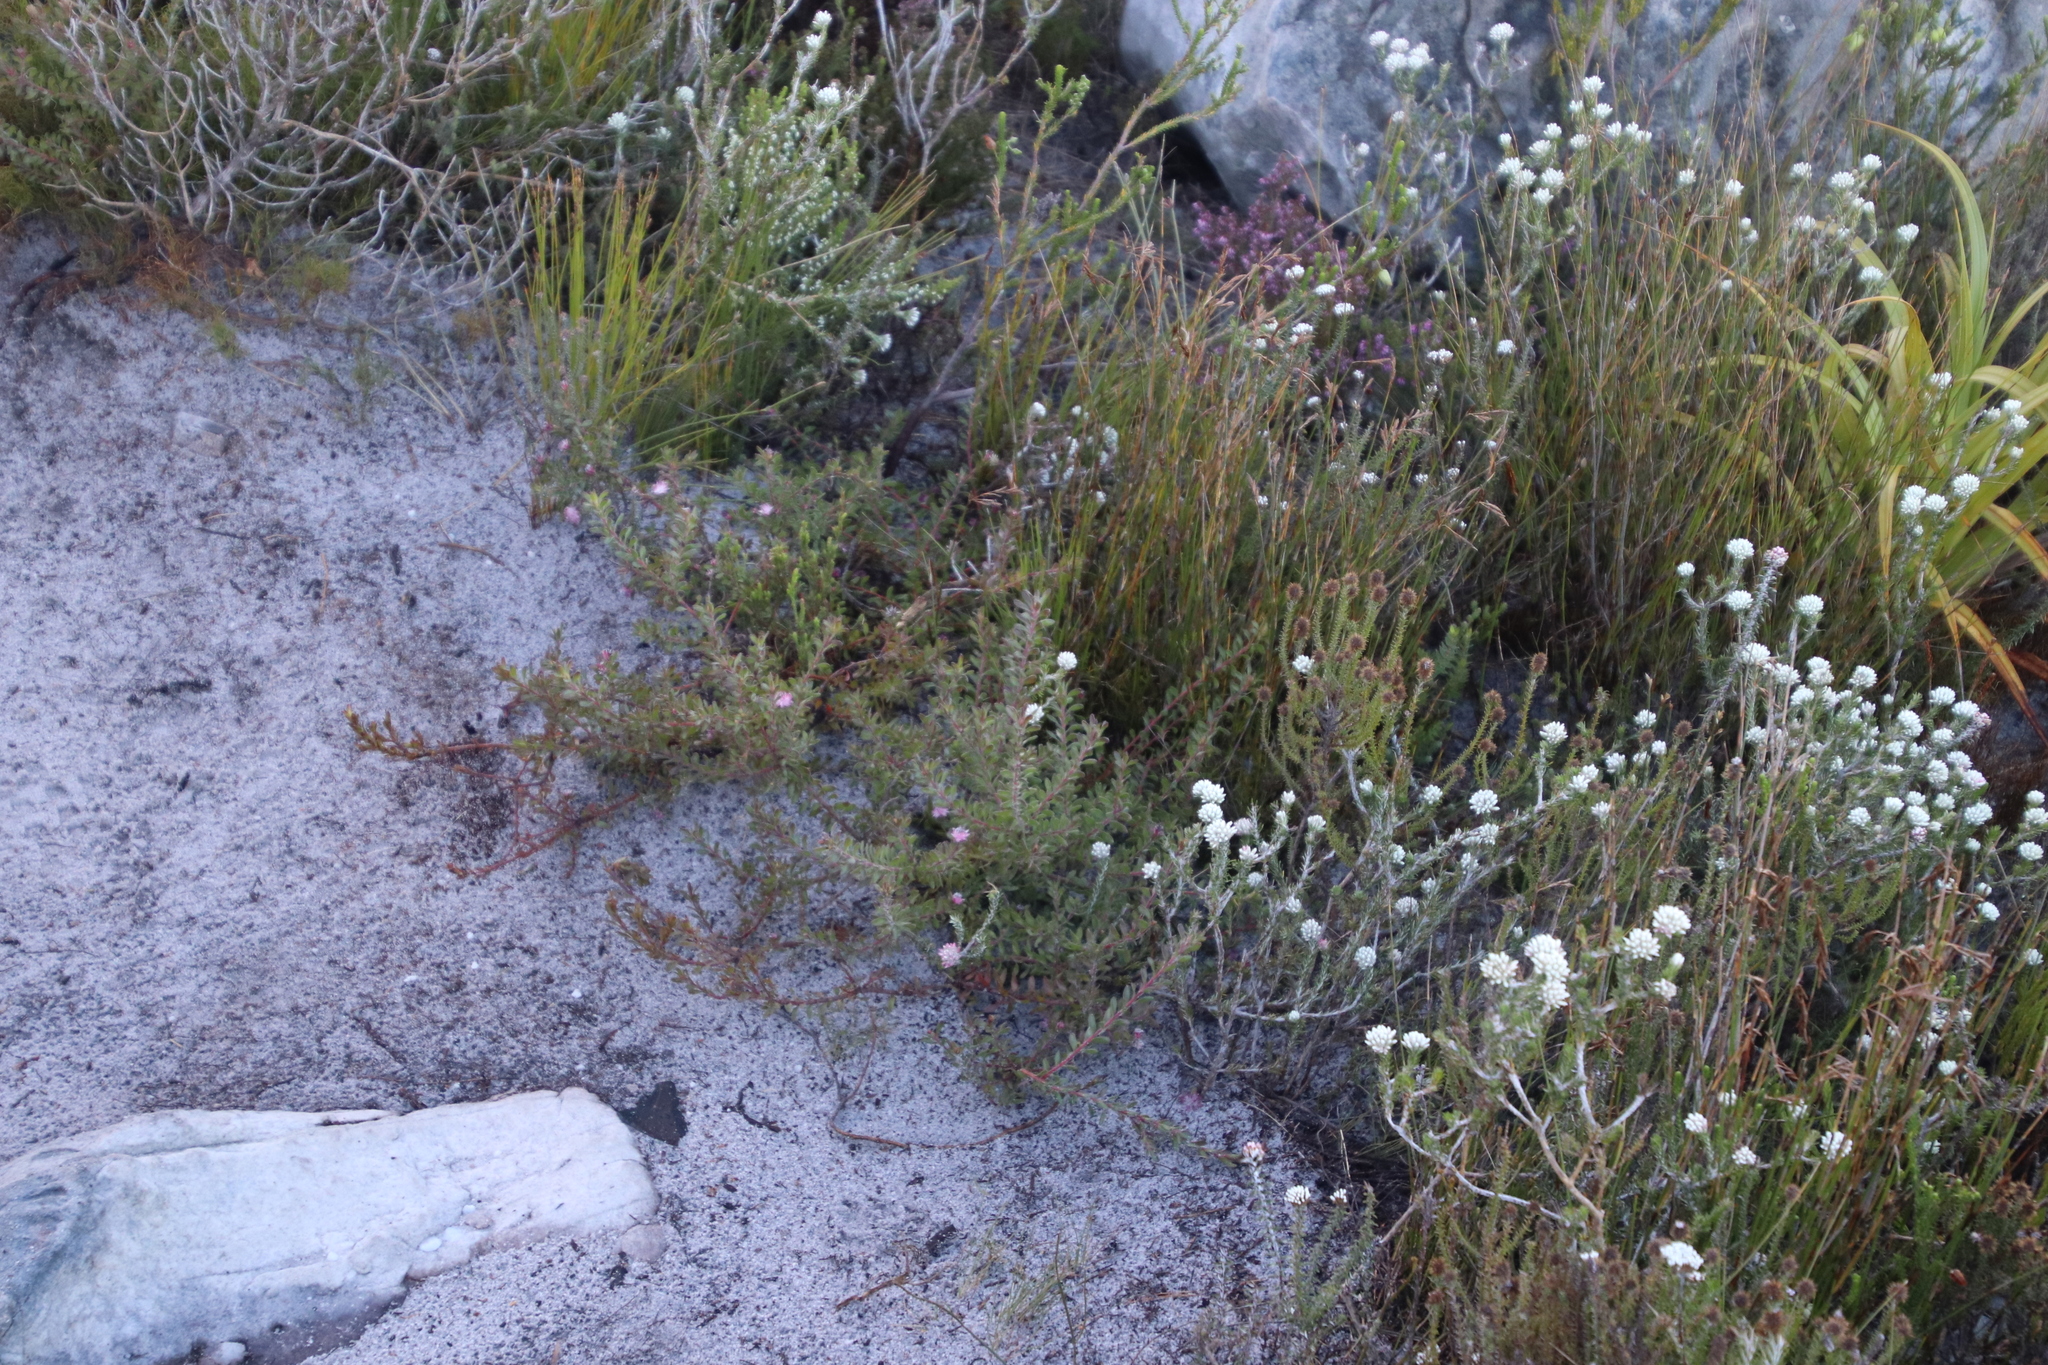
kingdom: Plantae
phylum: Tracheophyta
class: Magnoliopsida
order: Proteales
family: Proteaceae
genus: Diastella
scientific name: Diastella divaricata
